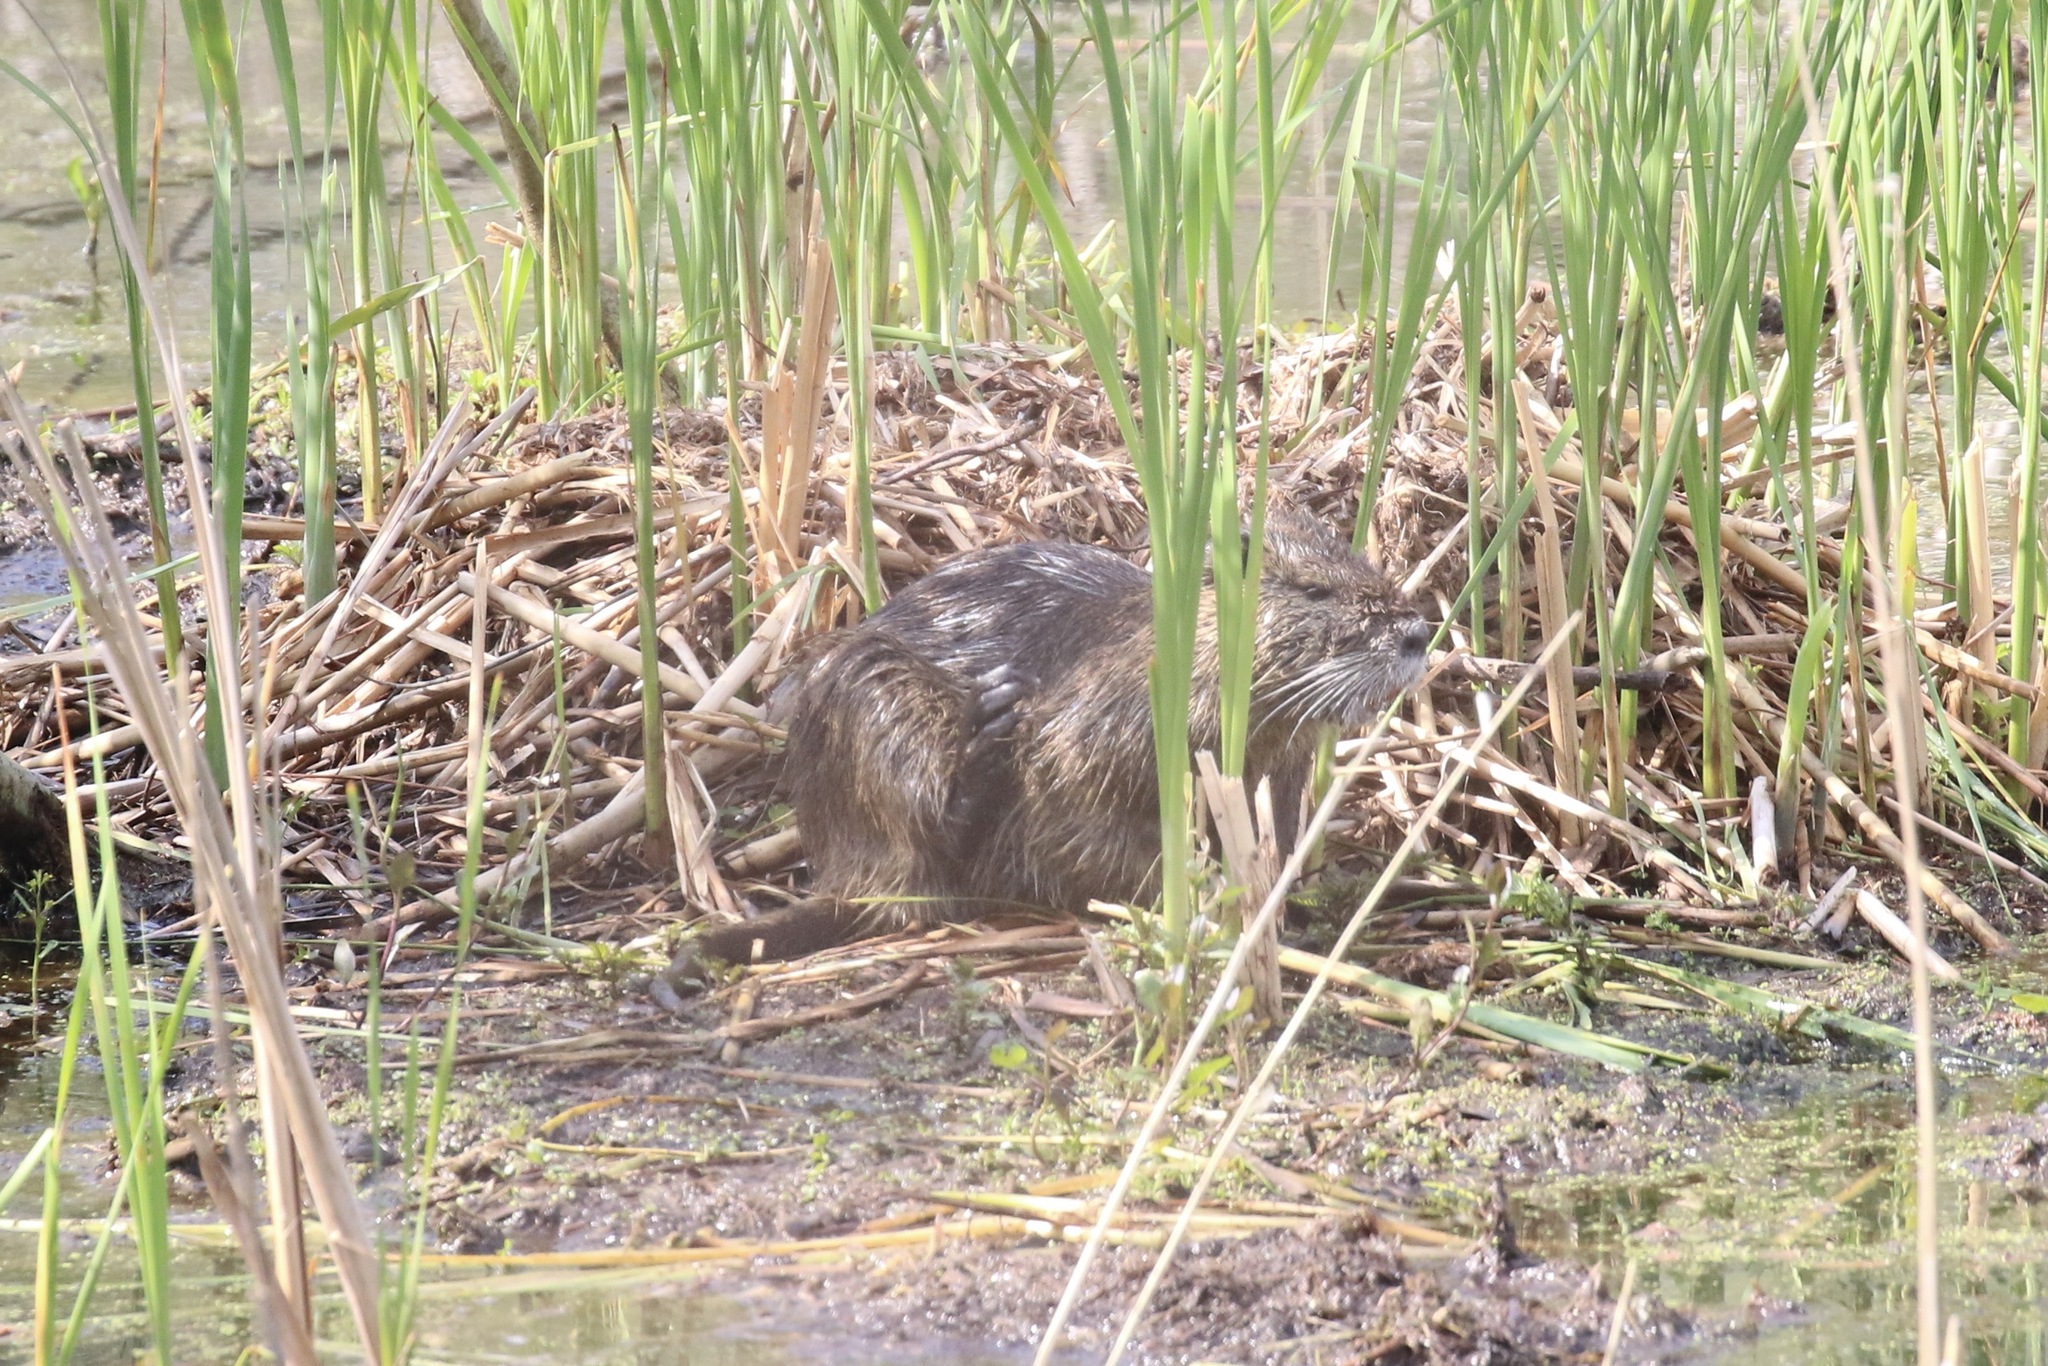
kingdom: Animalia
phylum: Chordata
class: Mammalia
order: Rodentia
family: Myocastoridae
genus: Myocastor
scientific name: Myocastor coypus
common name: Coypu
